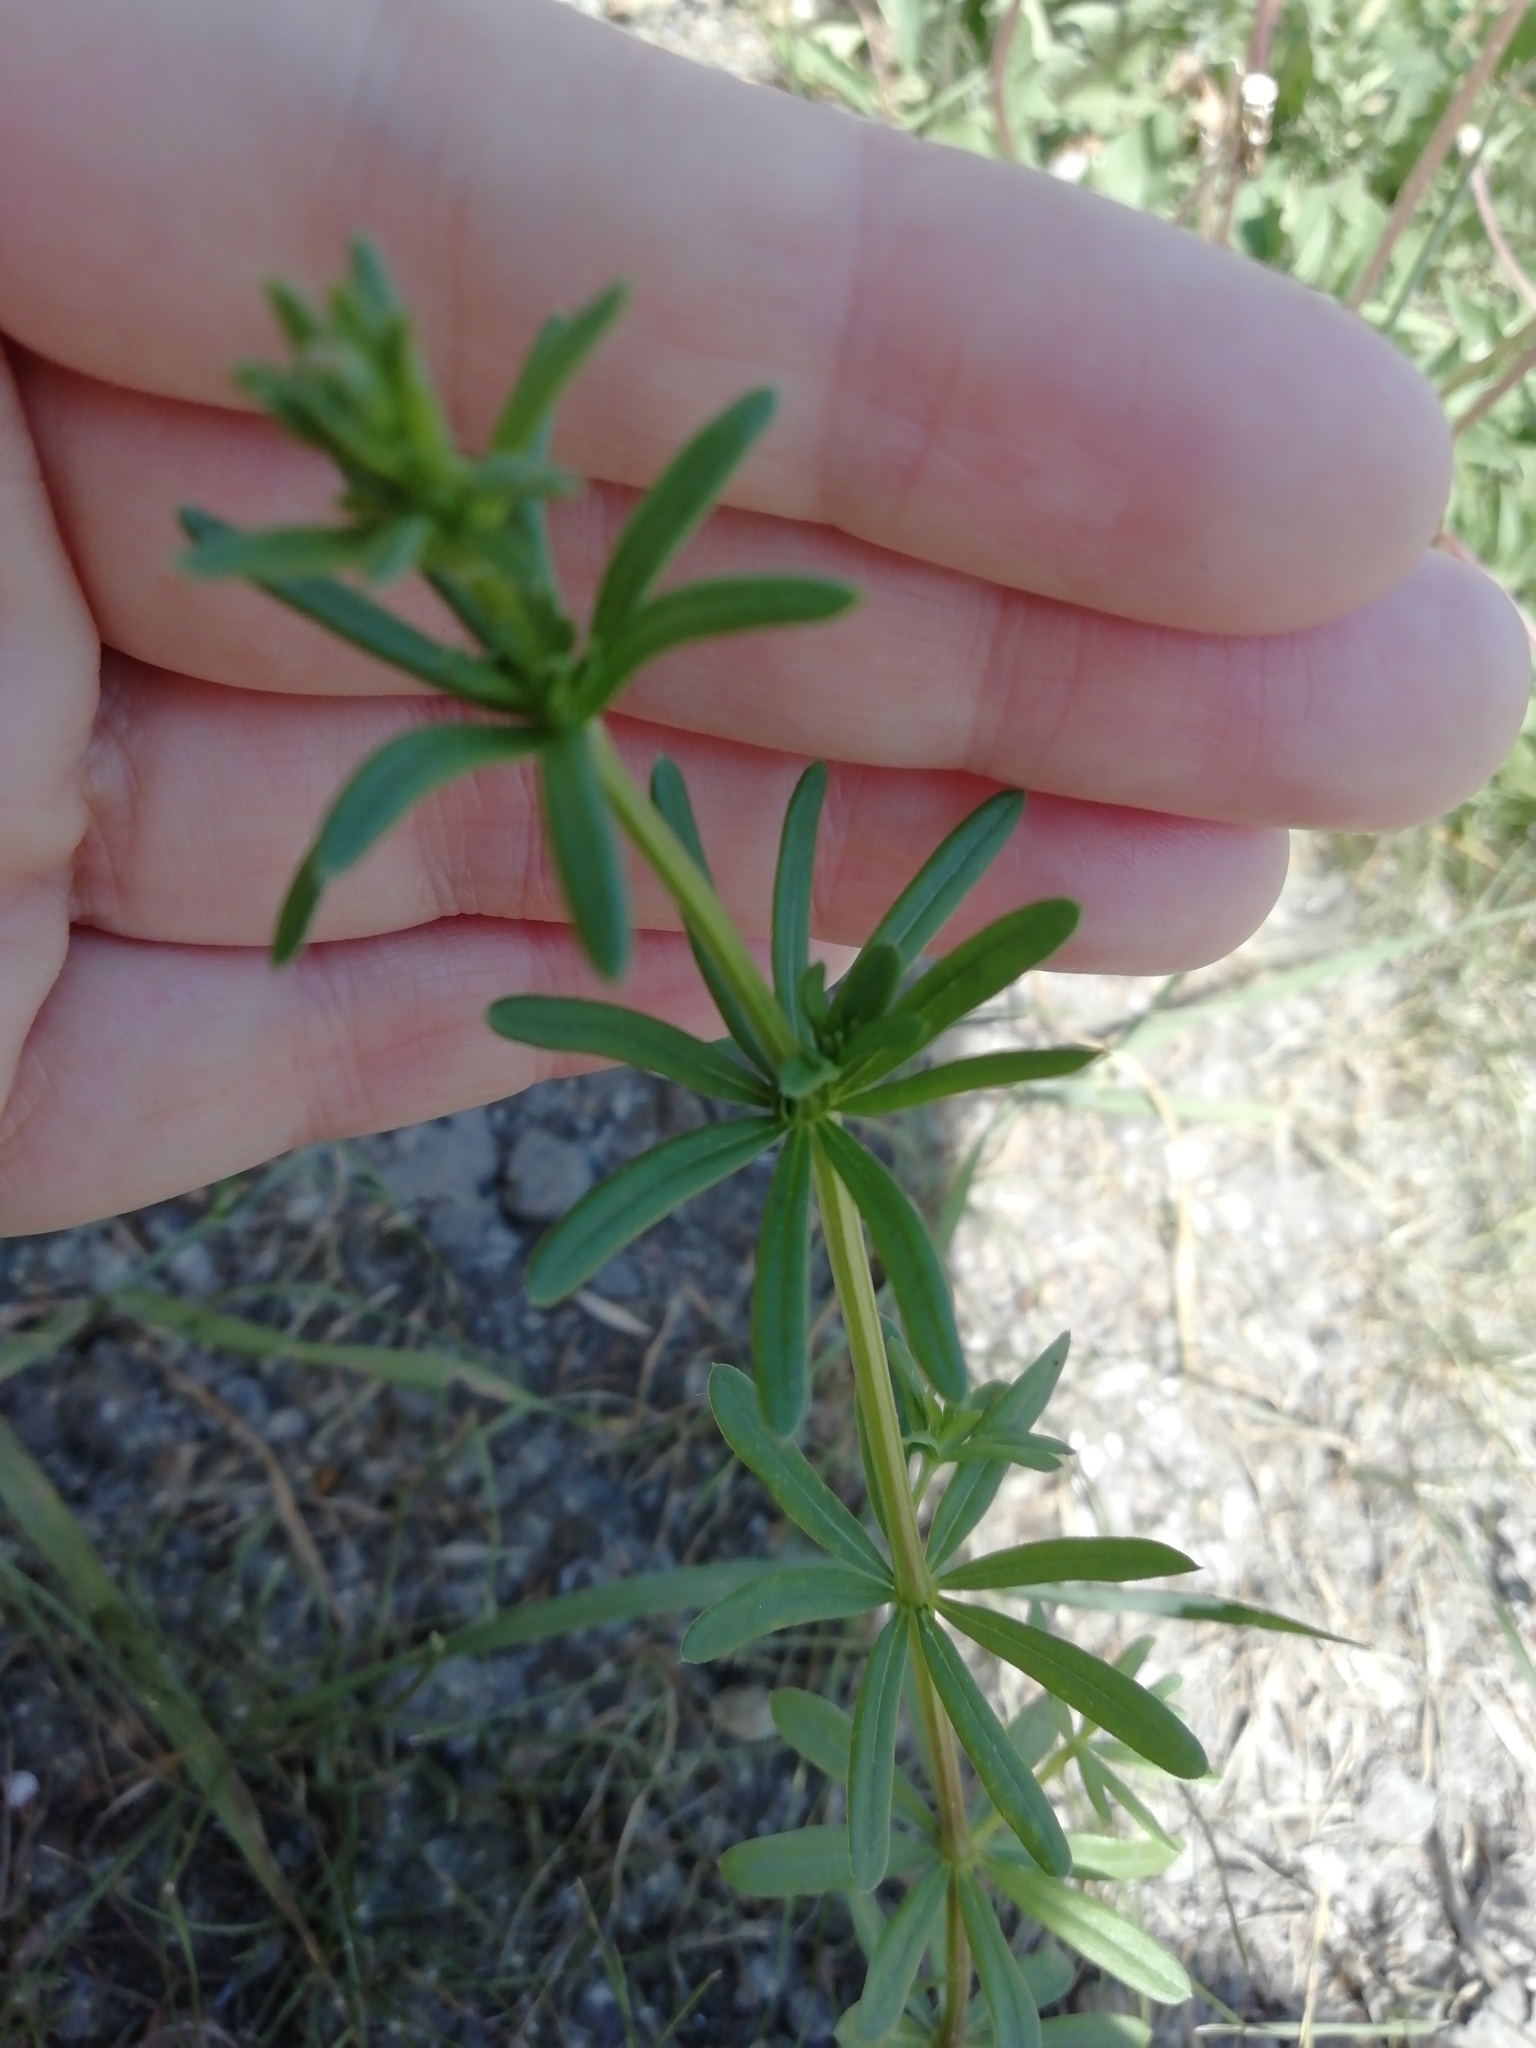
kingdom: Plantae
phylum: Tracheophyta
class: Magnoliopsida
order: Gentianales
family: Rubiaceae
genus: Galium
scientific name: Galium mollugo
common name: Hedge bedstraw
